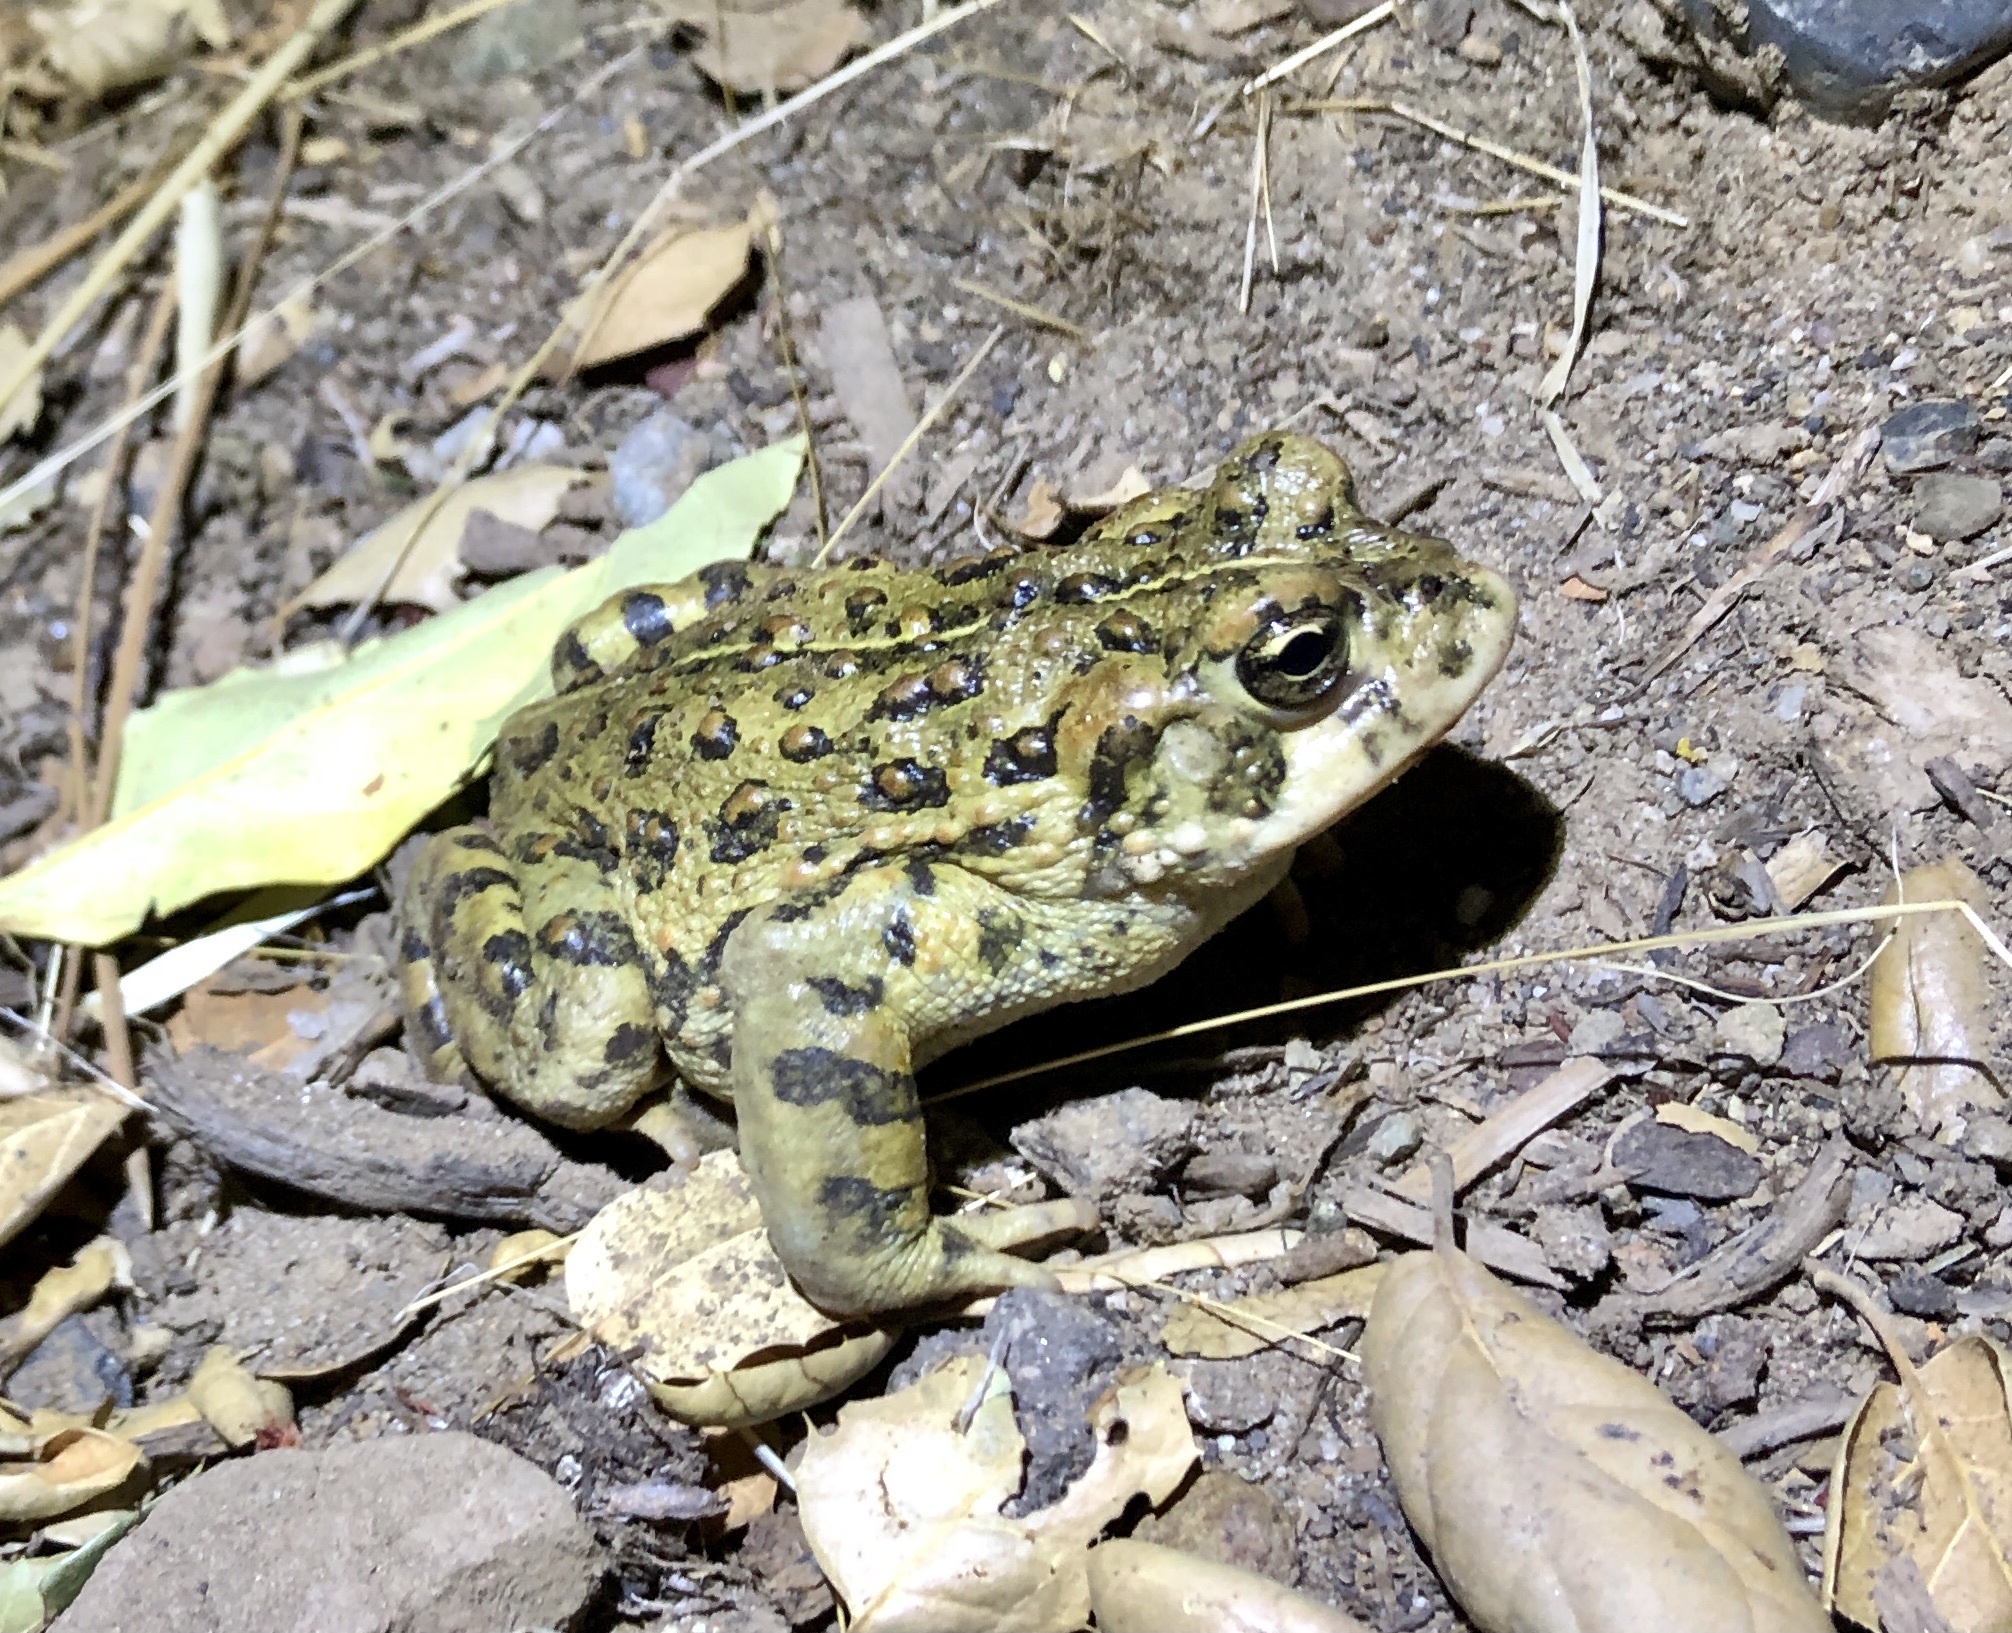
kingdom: Animalia
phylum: Chordata
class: Amphibia
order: Anura
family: Bufonidae
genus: Anaxyrus
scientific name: Anaxyrus boreas
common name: Western toad
